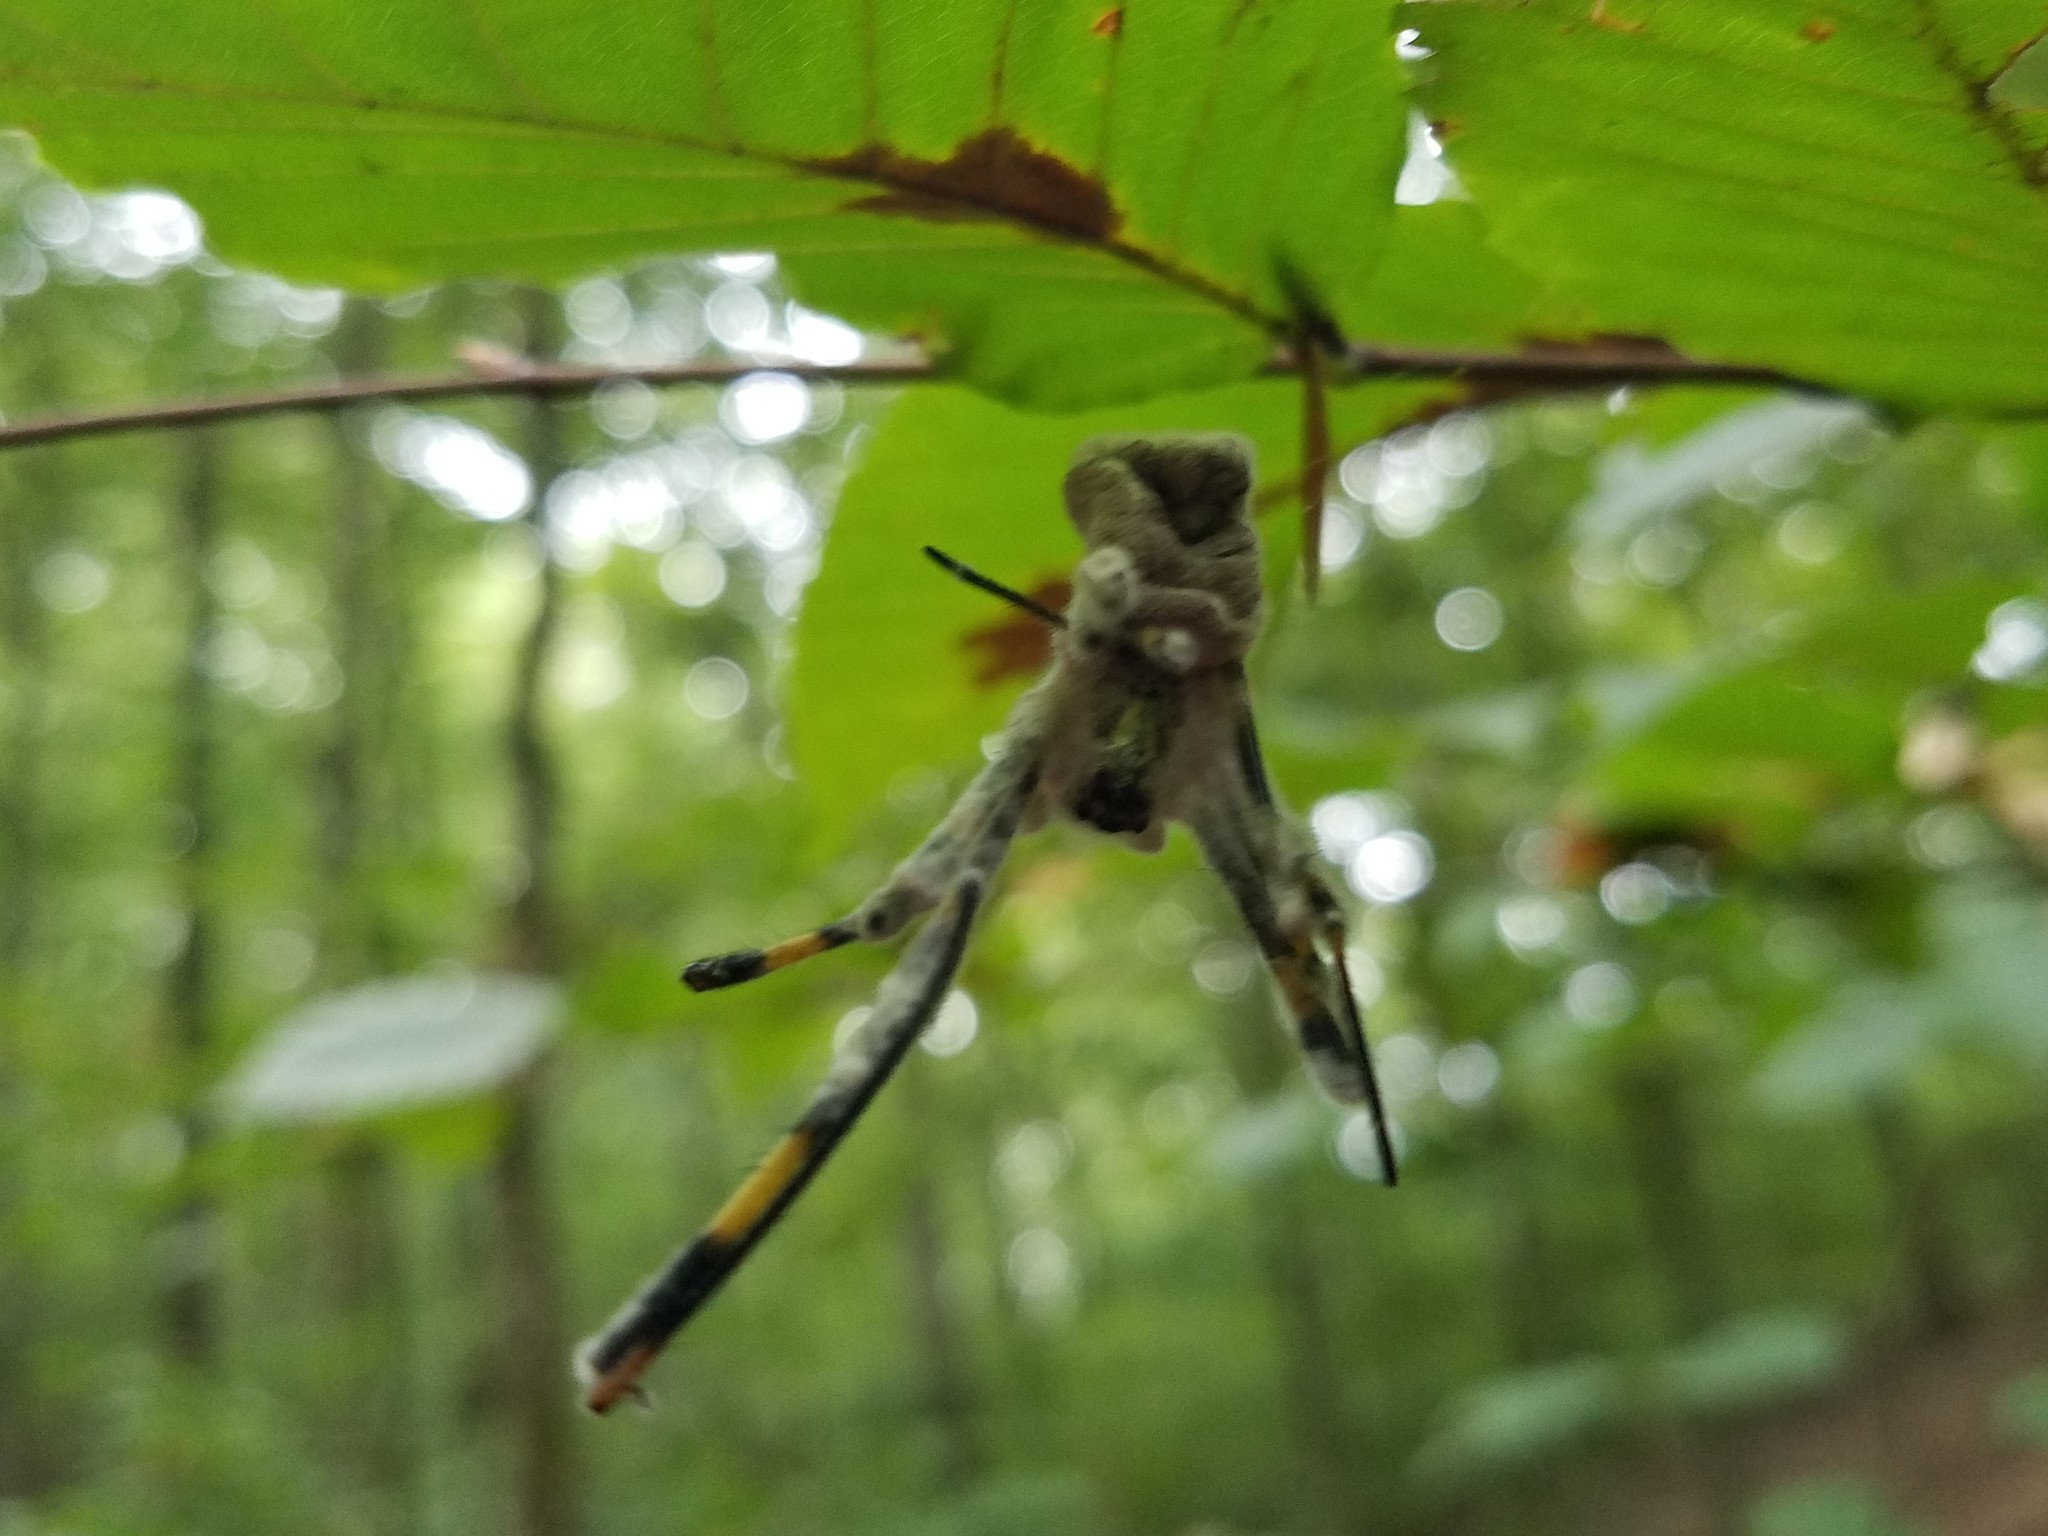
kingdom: Fungi
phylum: Ascomycota
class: Sordariomycetes
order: Hypocreales
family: Ophiocordycipitaceae
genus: Purpureocillium
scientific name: Purpureocillium atypicola
